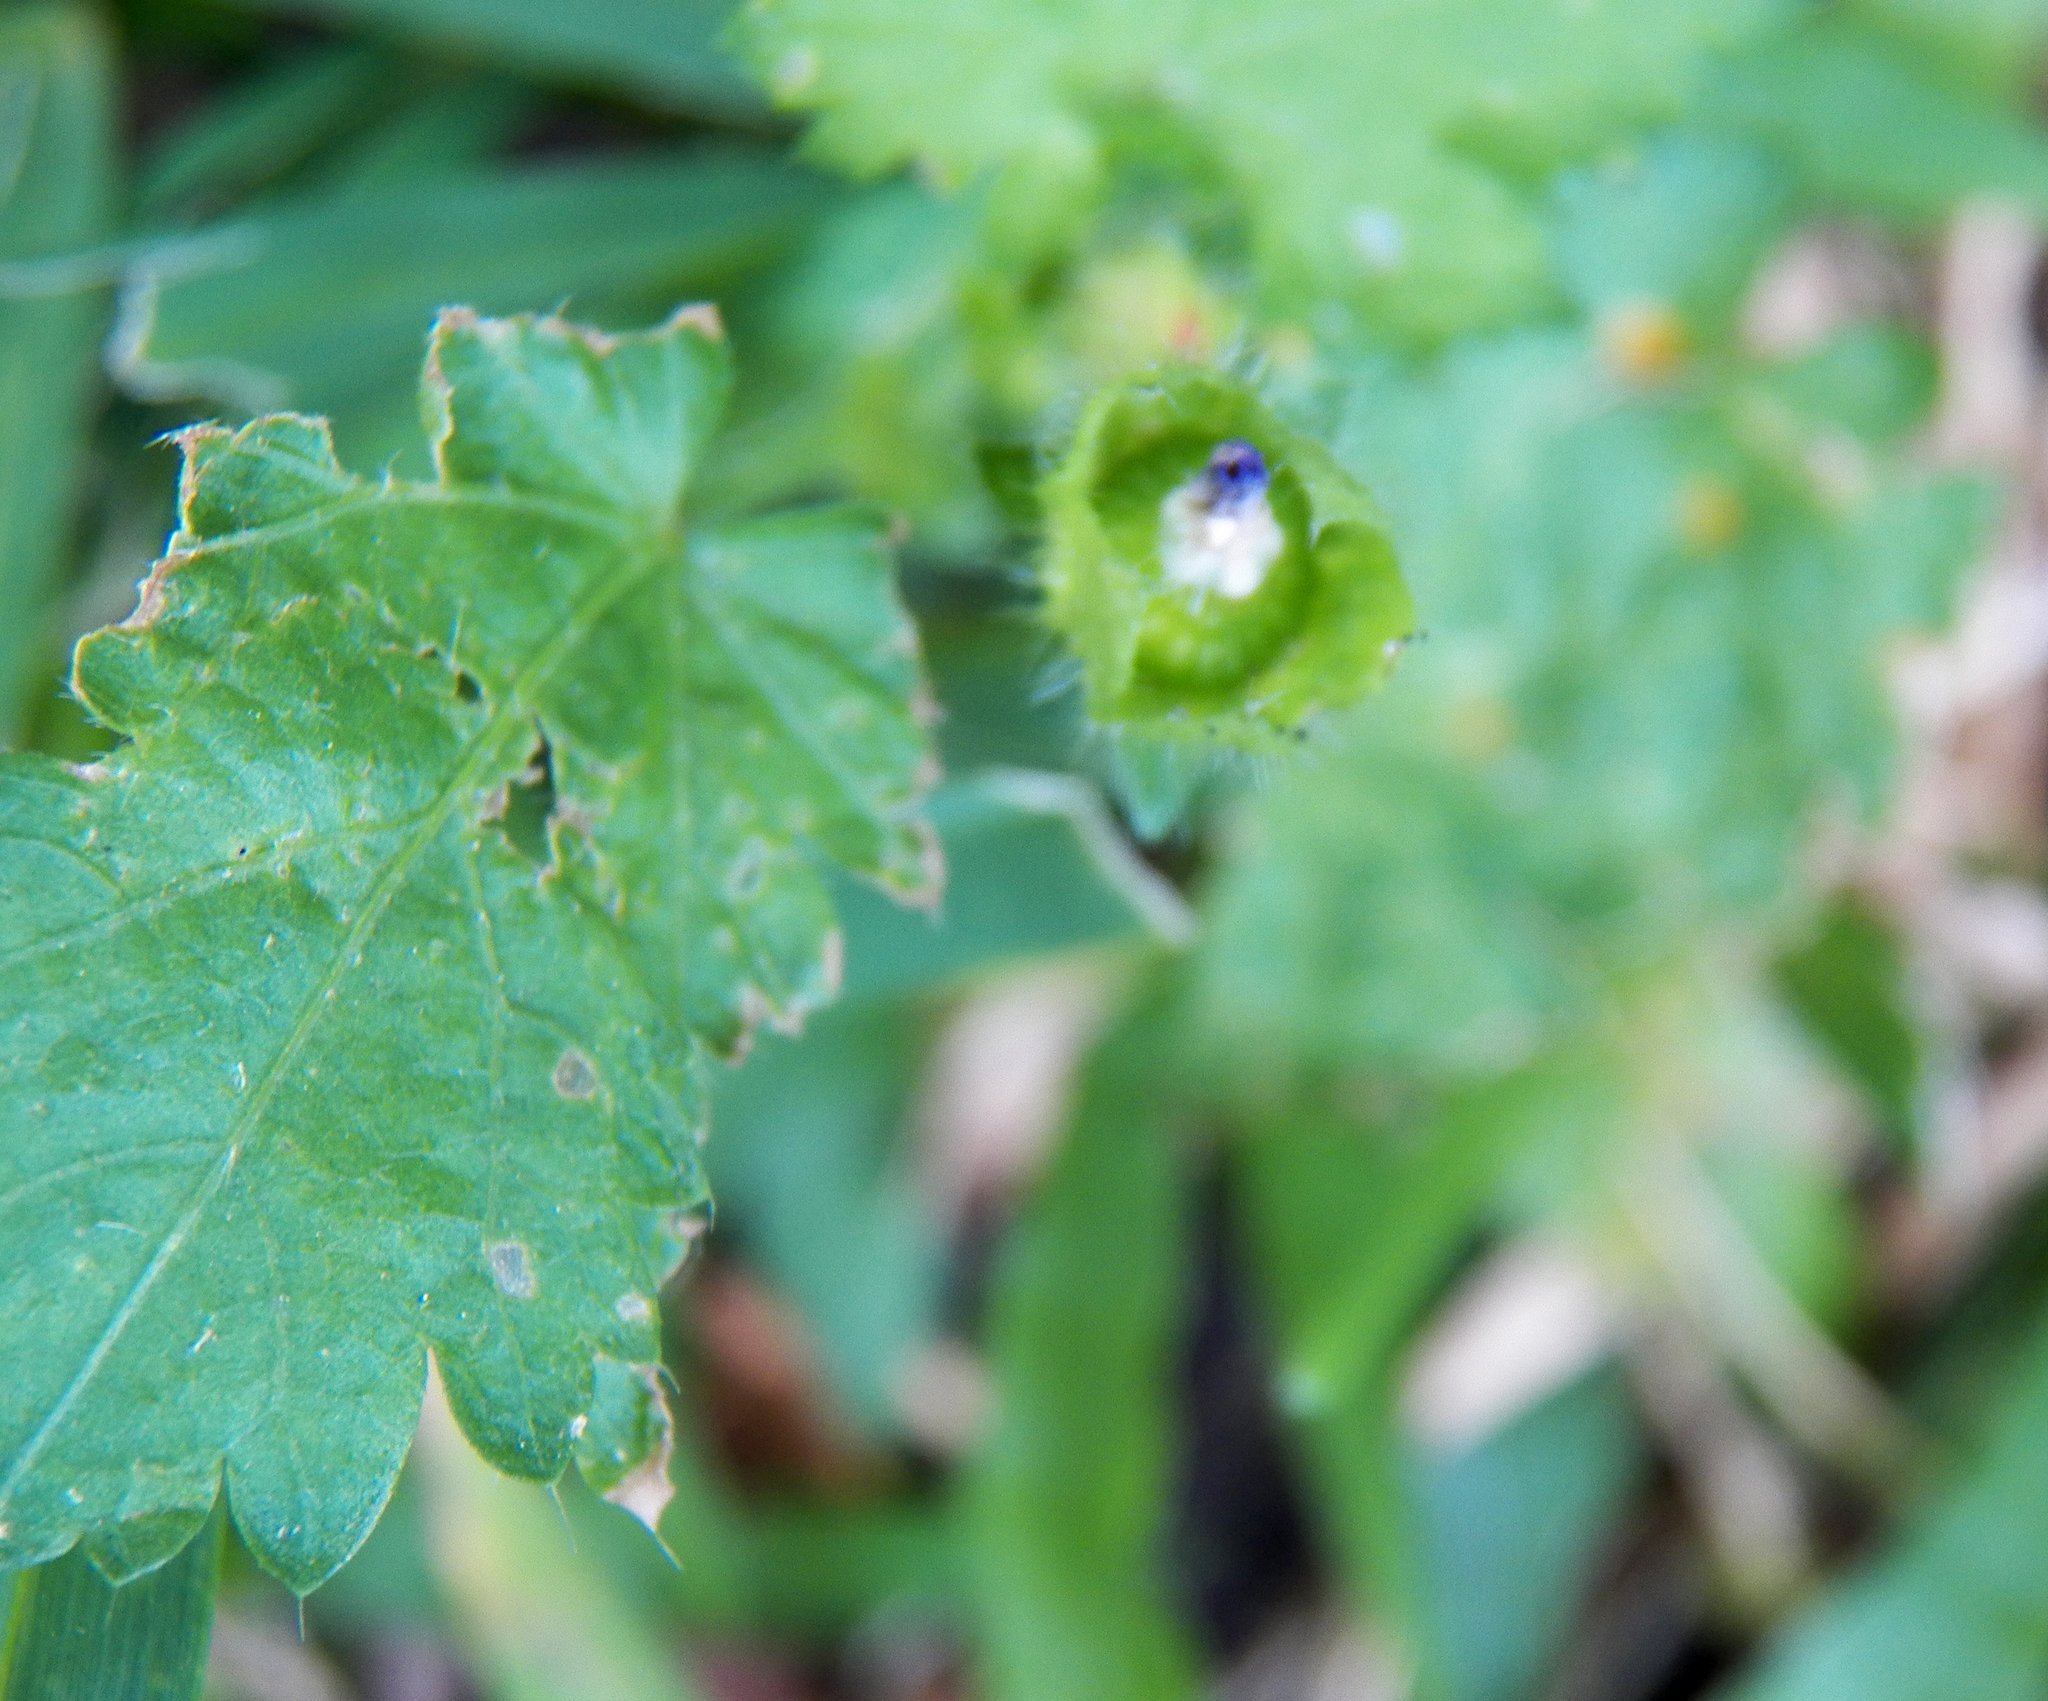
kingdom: Plantae
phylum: Tracheophyta
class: Magnoliopsida
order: Malvales
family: Malvaceae
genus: Modiola
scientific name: Modiola caroliniana
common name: Carolina bristlemallow
